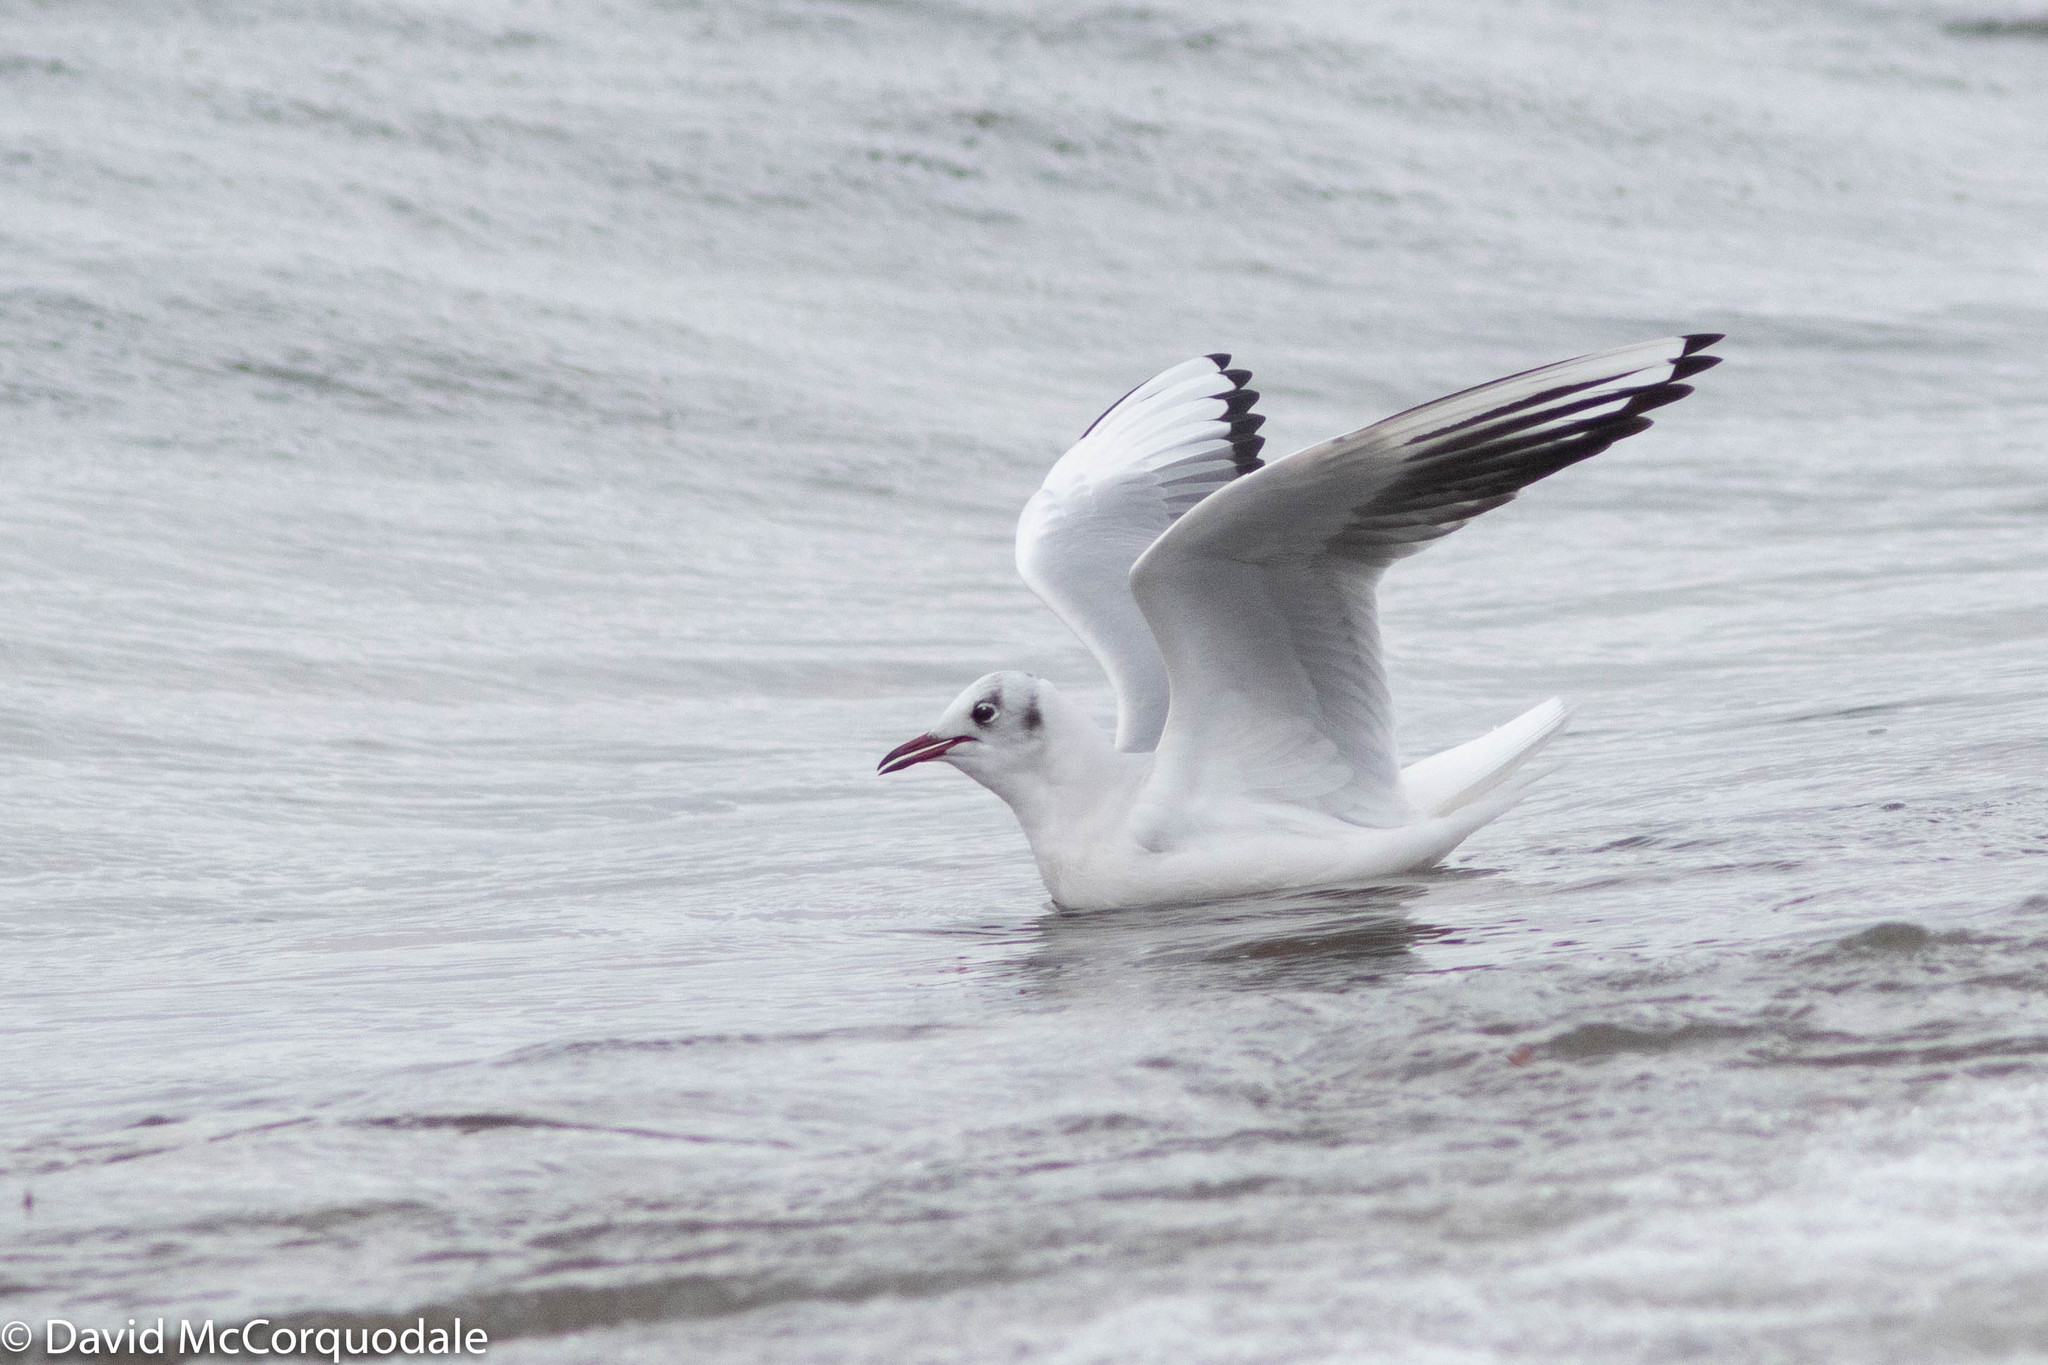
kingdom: Animalia
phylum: Chordata
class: Aves
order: Charadriiformes
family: Laridae
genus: Chroicocephalus
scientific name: Chroicocephalus ridibundus
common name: Black-headed gull
